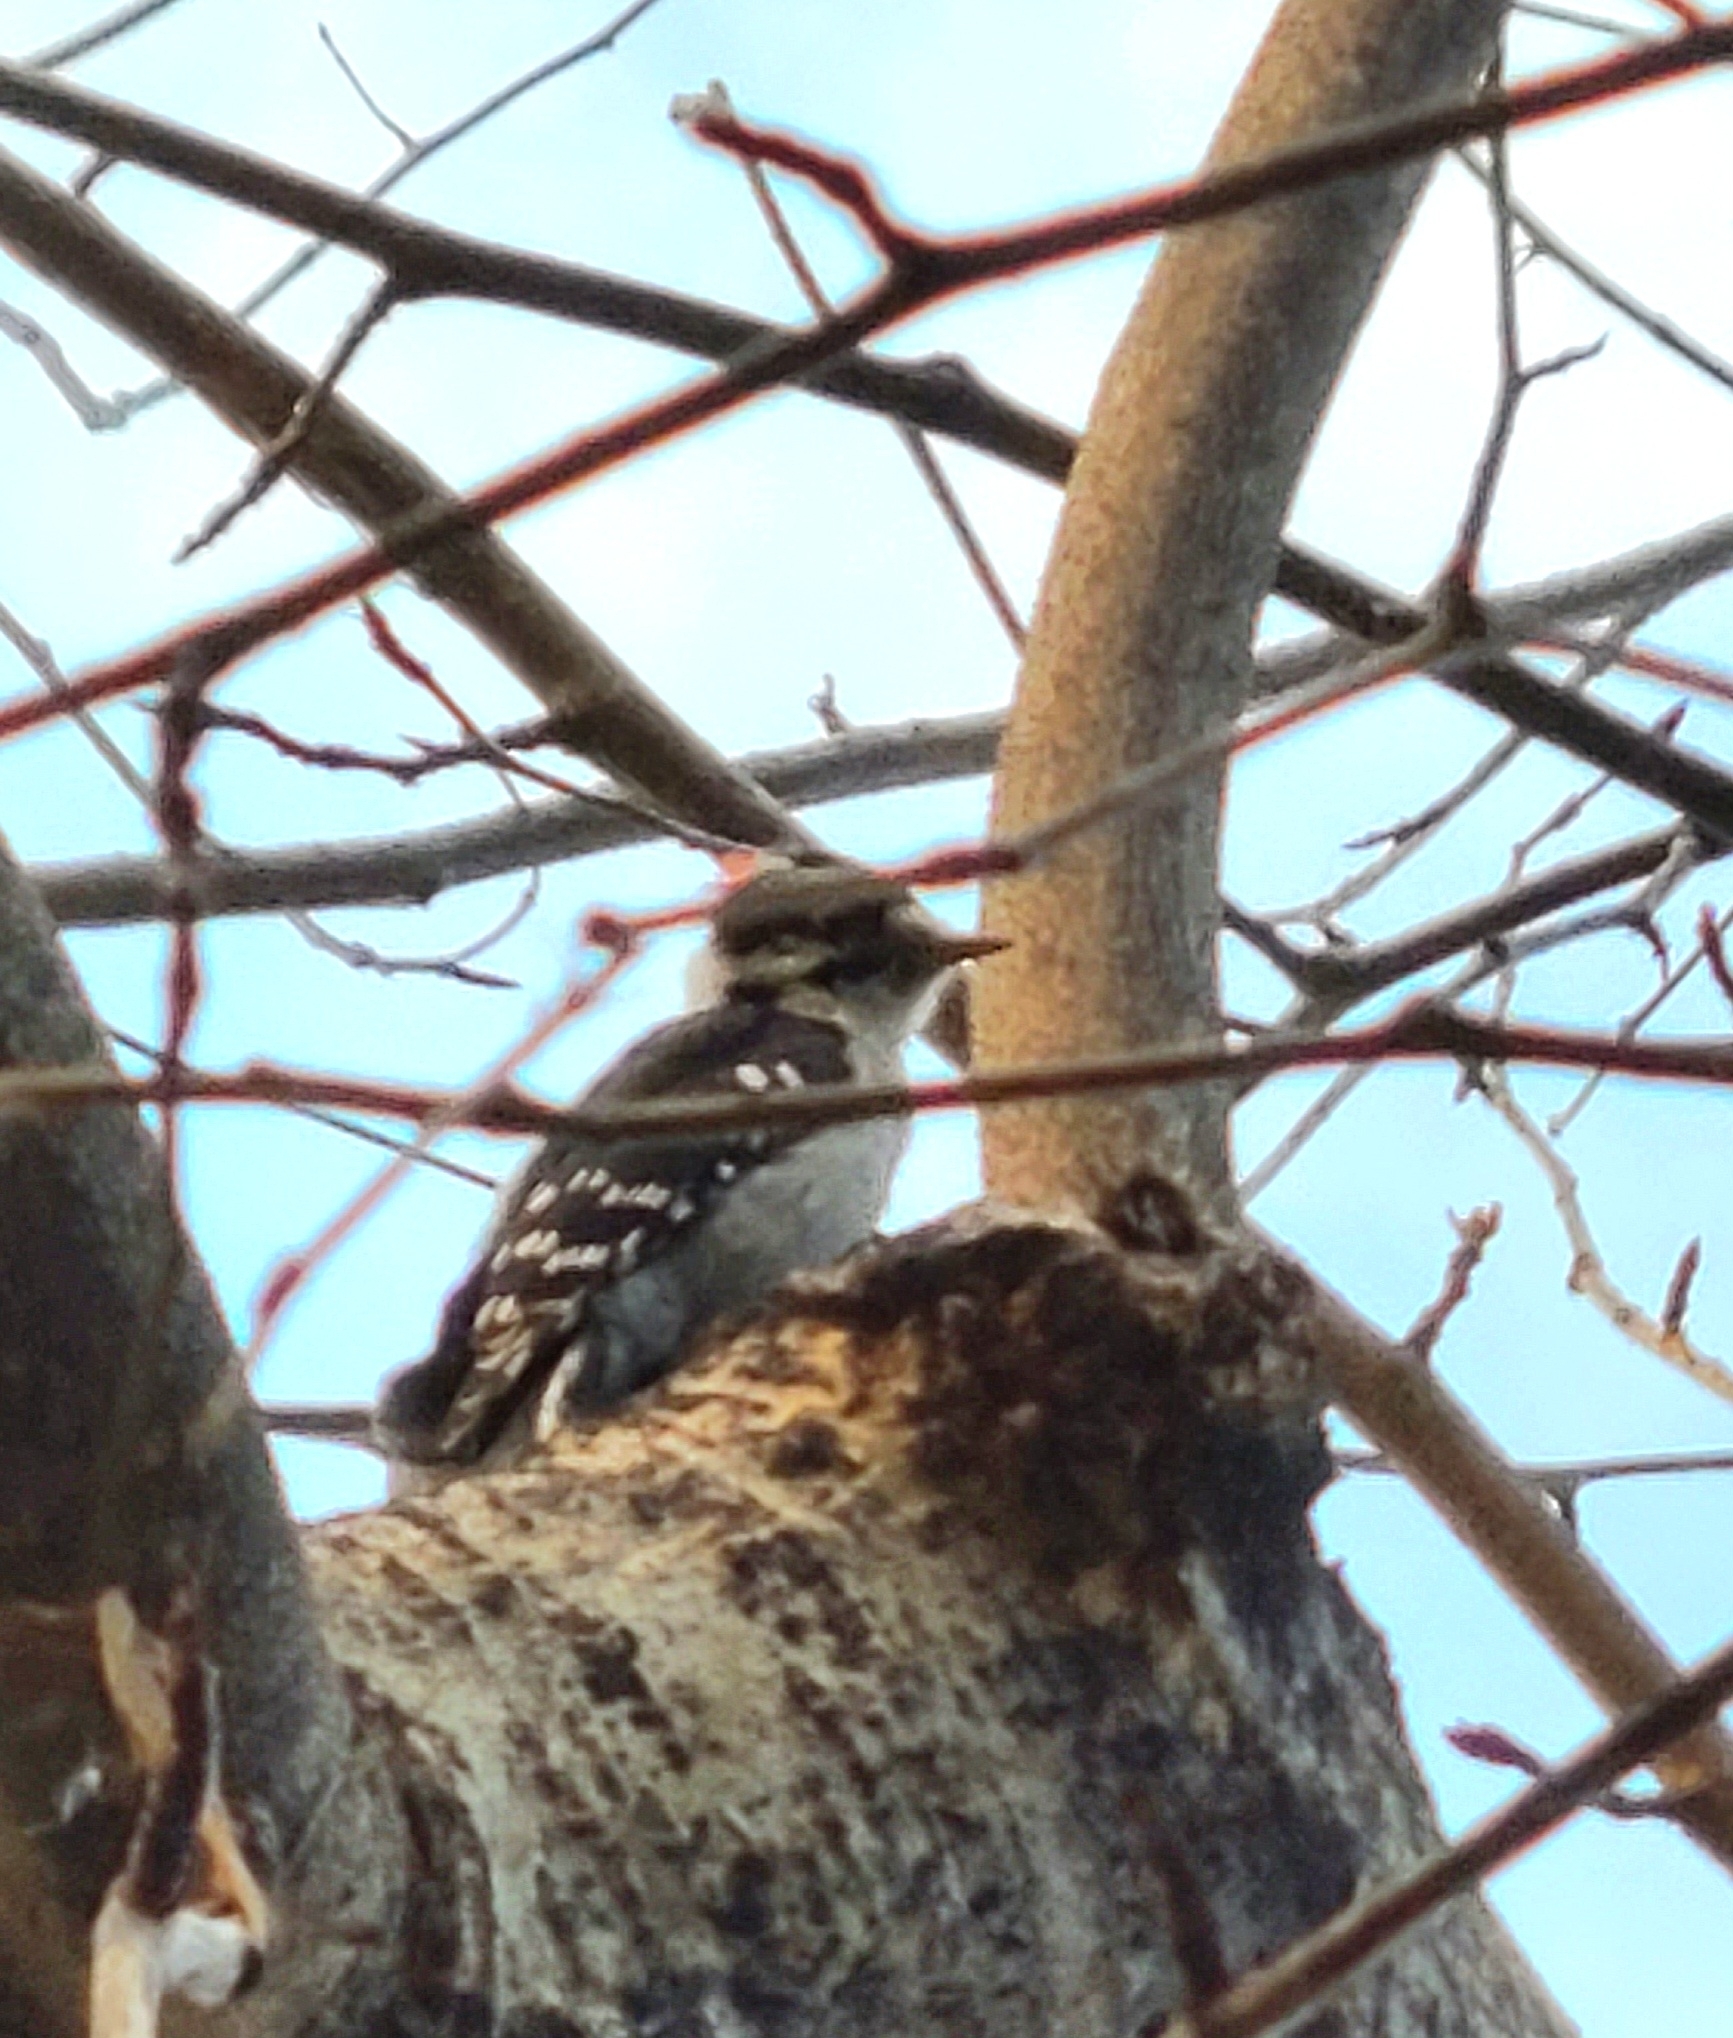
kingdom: Animalia
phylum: Chordata
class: Aves
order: Piciformes
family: Picidae
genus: Dryobates
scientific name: Dryobates pubescens
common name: Downy woodpecker
